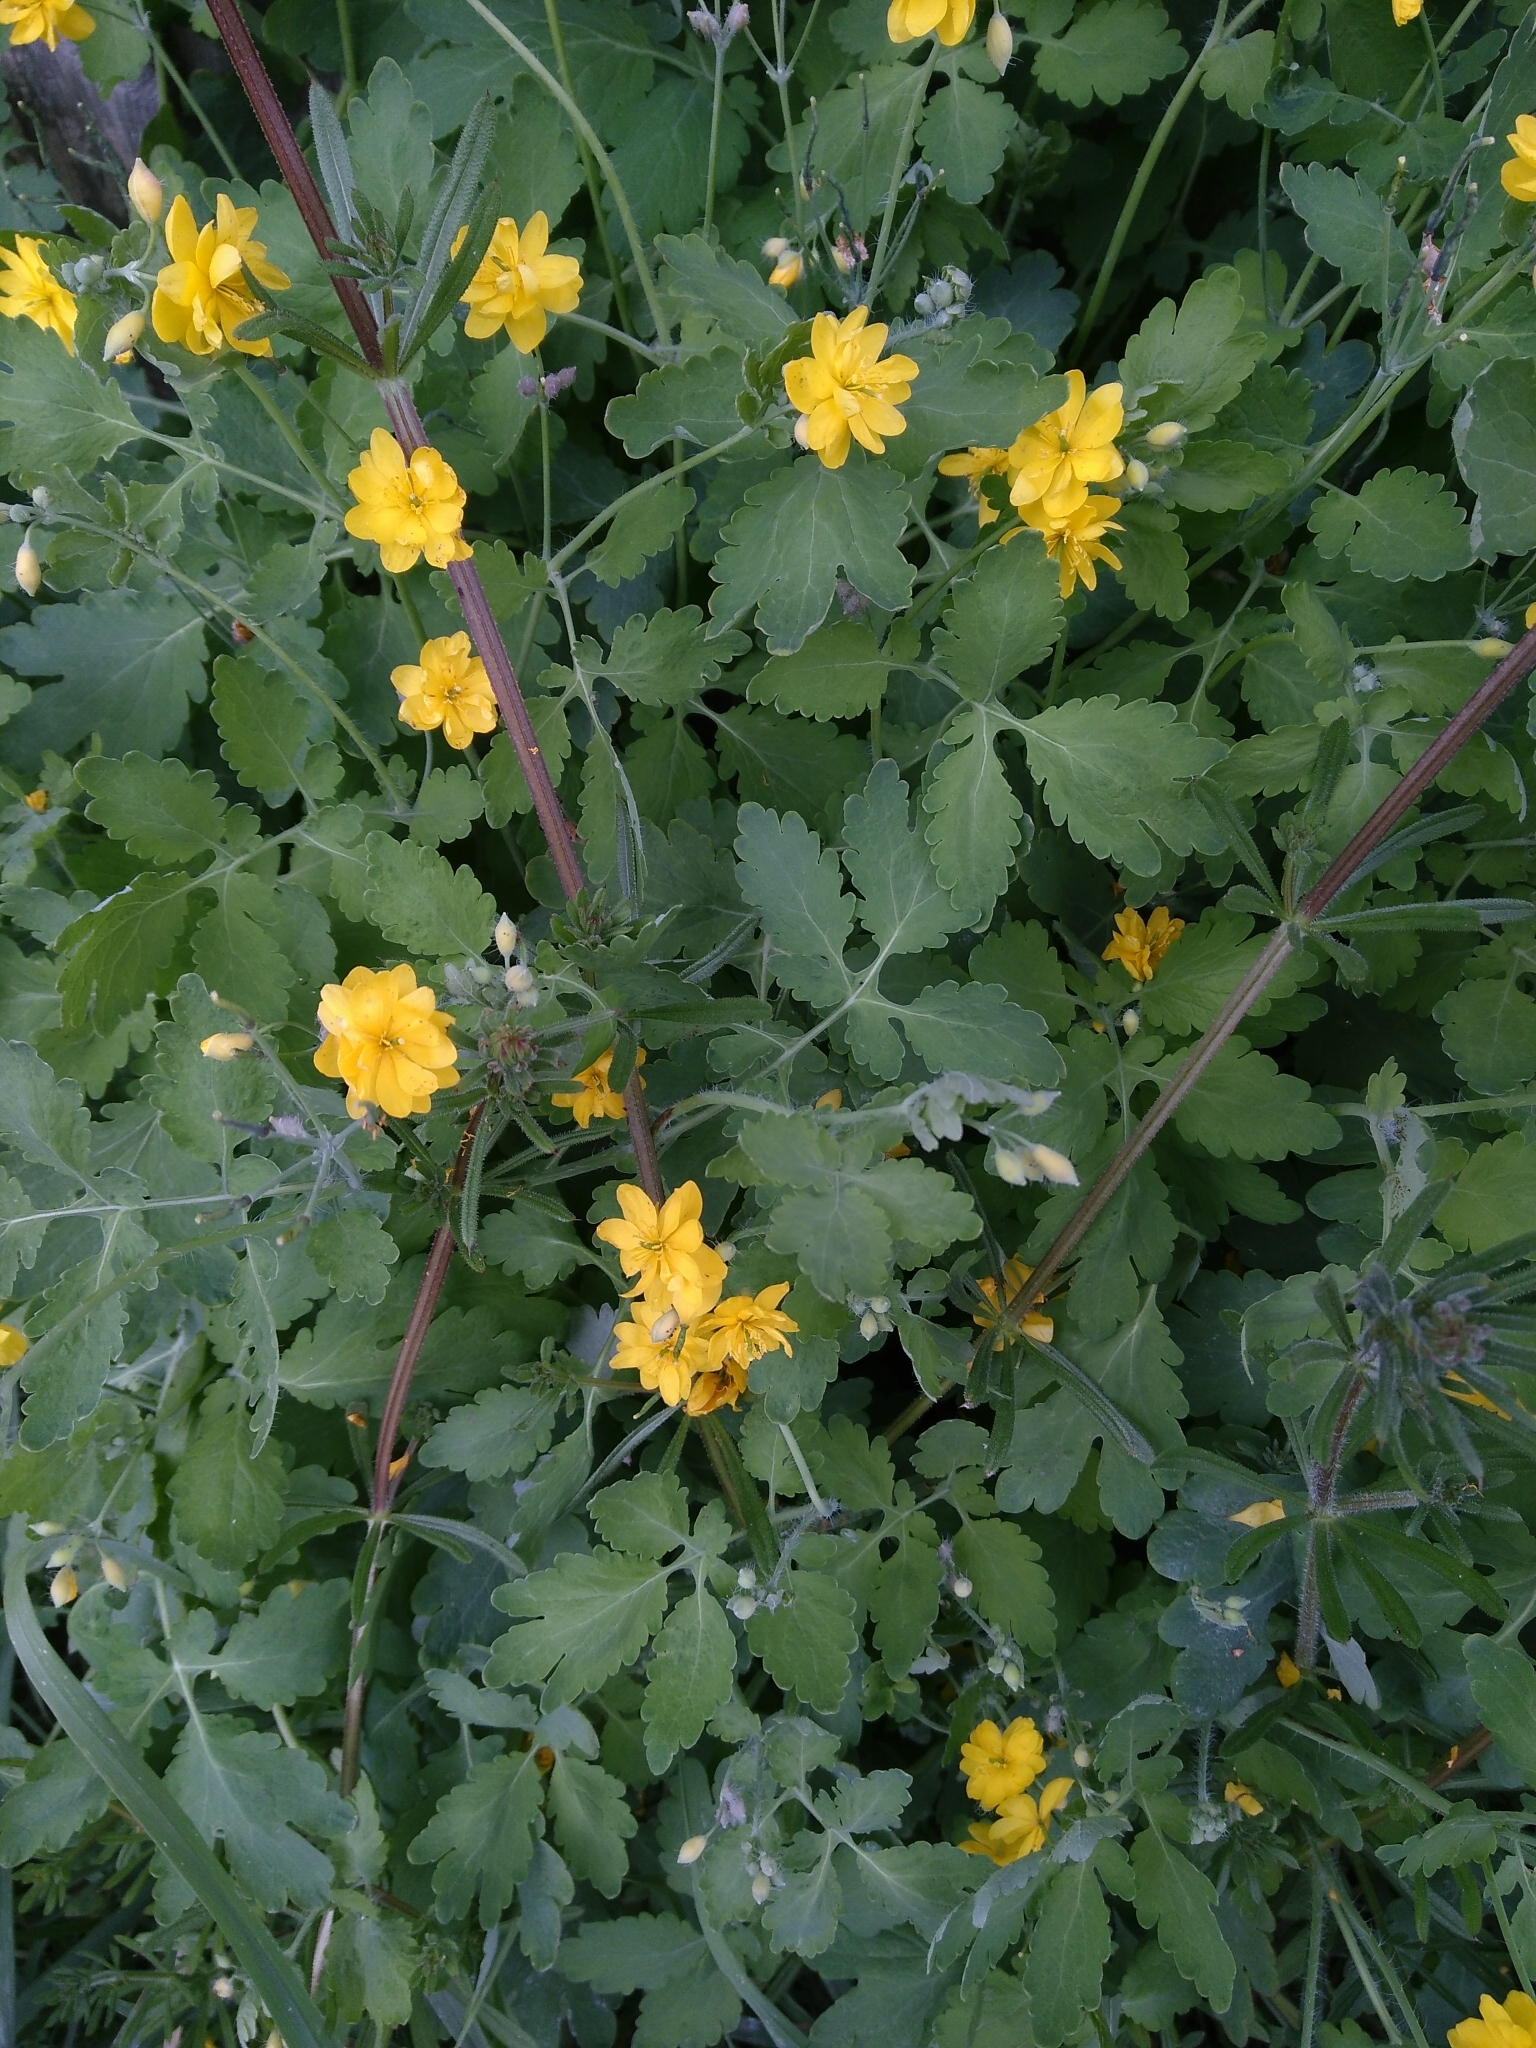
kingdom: Plantae
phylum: Tracheophyta
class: Magnoliopsida
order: Ranunculales
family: Papaveraceae
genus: Chelidonium
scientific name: Chelidonium majus
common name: Greater celandine
